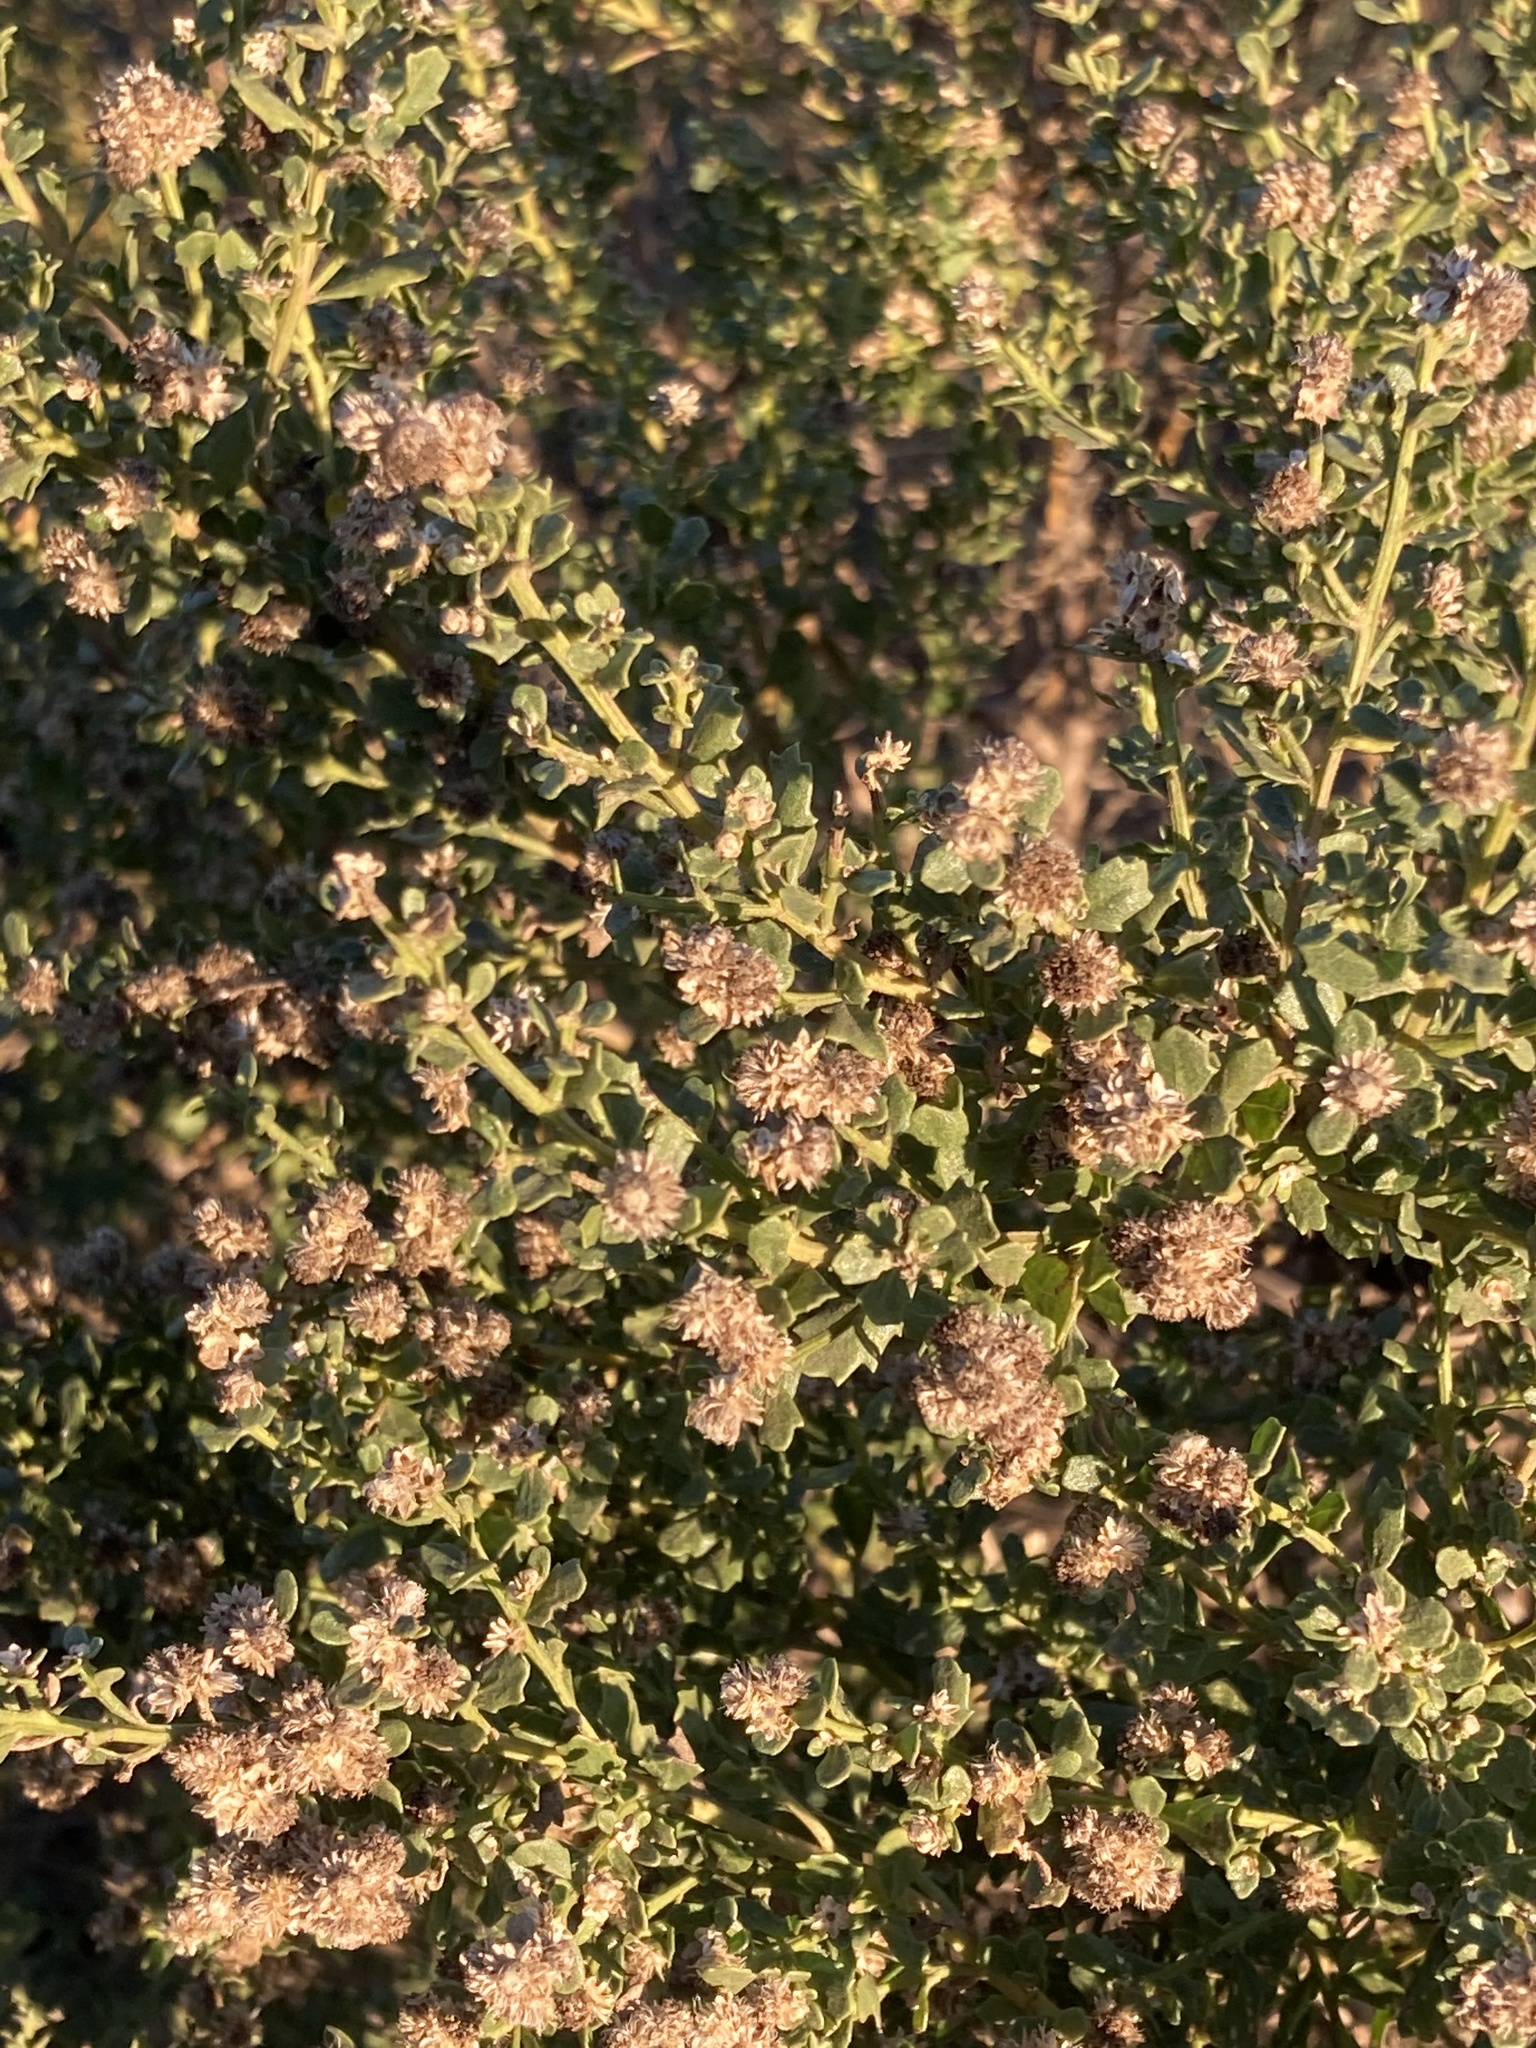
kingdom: Plantae
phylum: Tracheophyta
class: Magnoliopsida
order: Asterales
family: Asteraceae
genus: Baccharis
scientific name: Baccharis pilularis
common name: Coyotebrush
